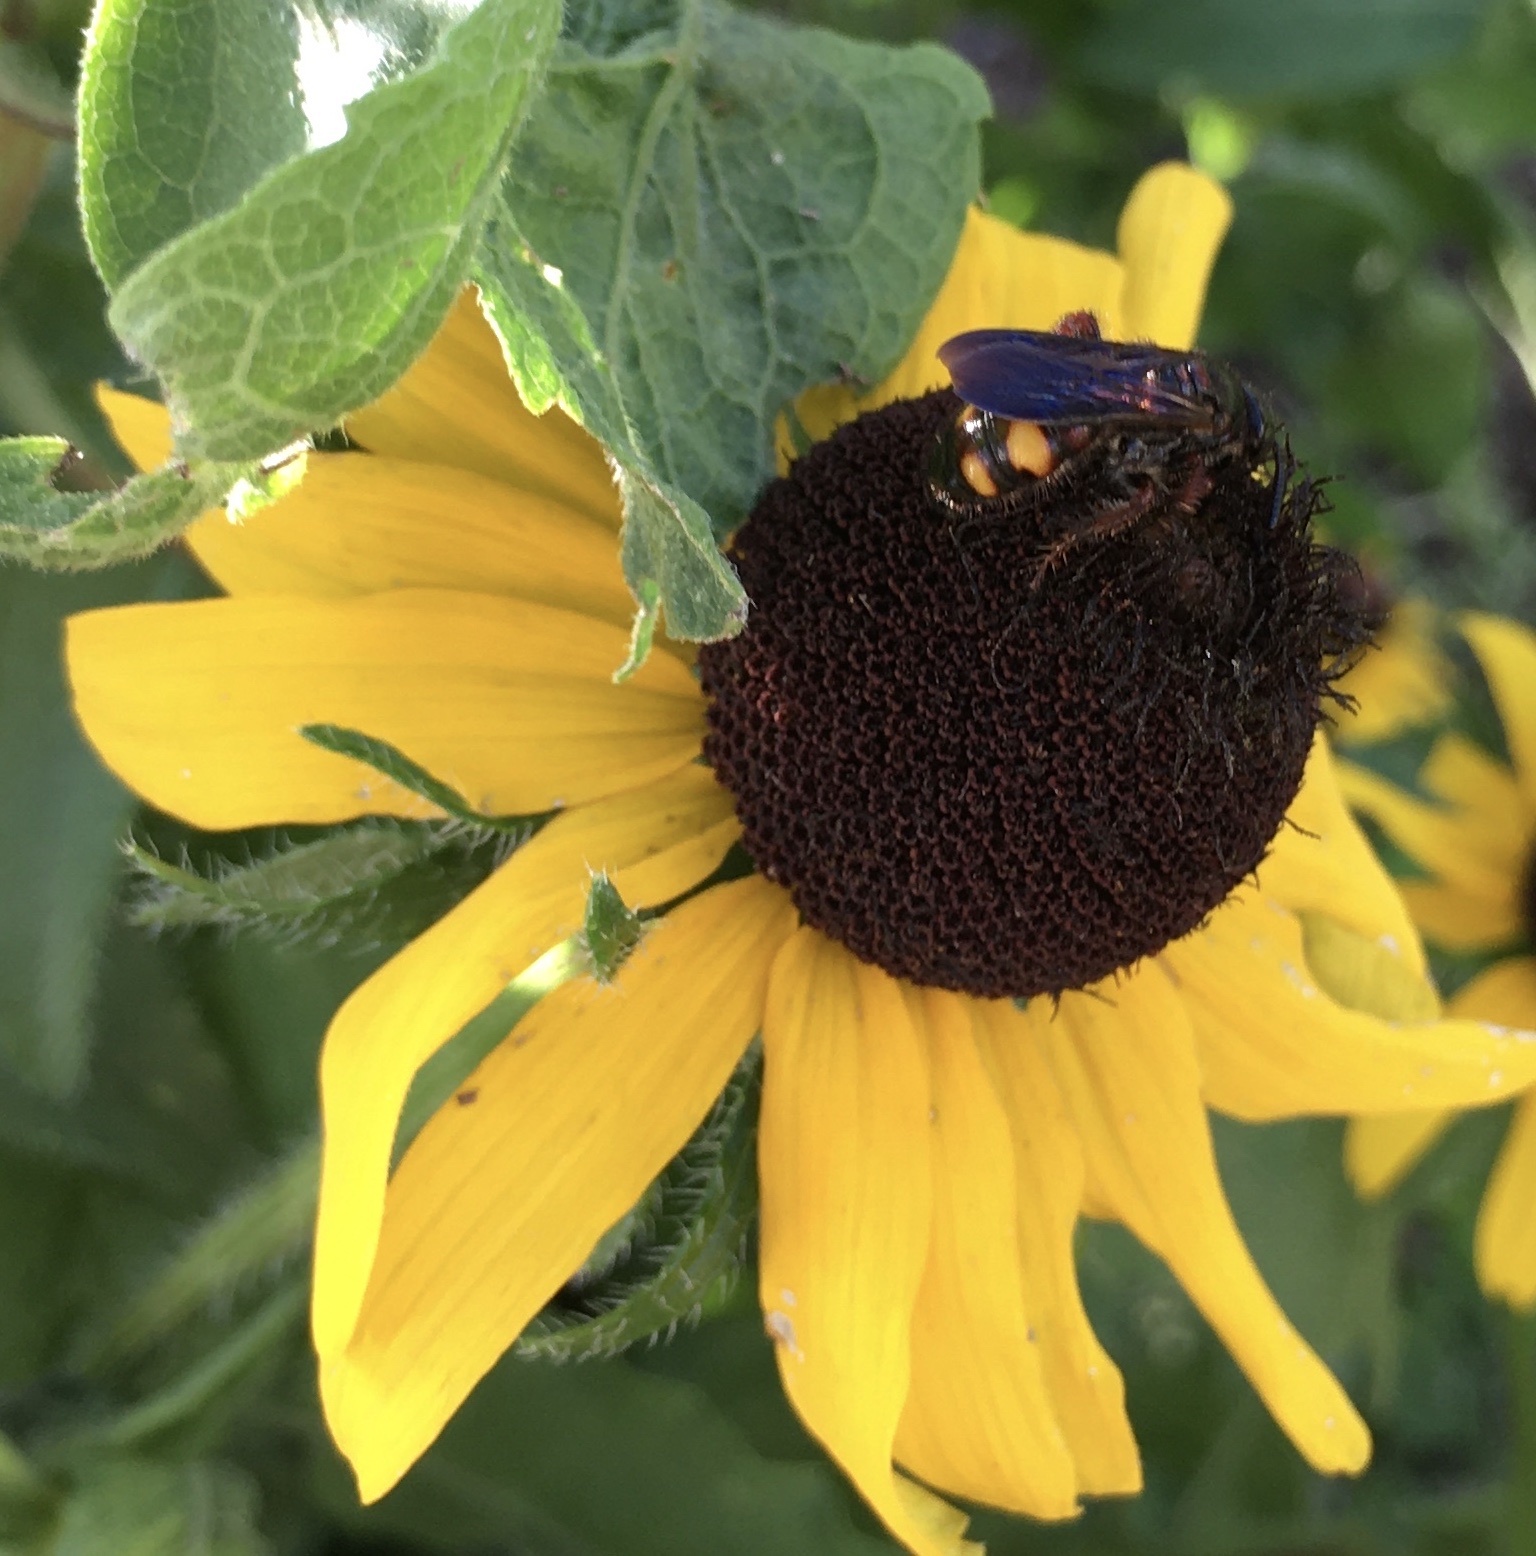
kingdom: Animalia
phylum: Arthropoda
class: Insecta
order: Hymenoptera
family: Scoliidae
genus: Scolia
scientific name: Scolia nobilitata
